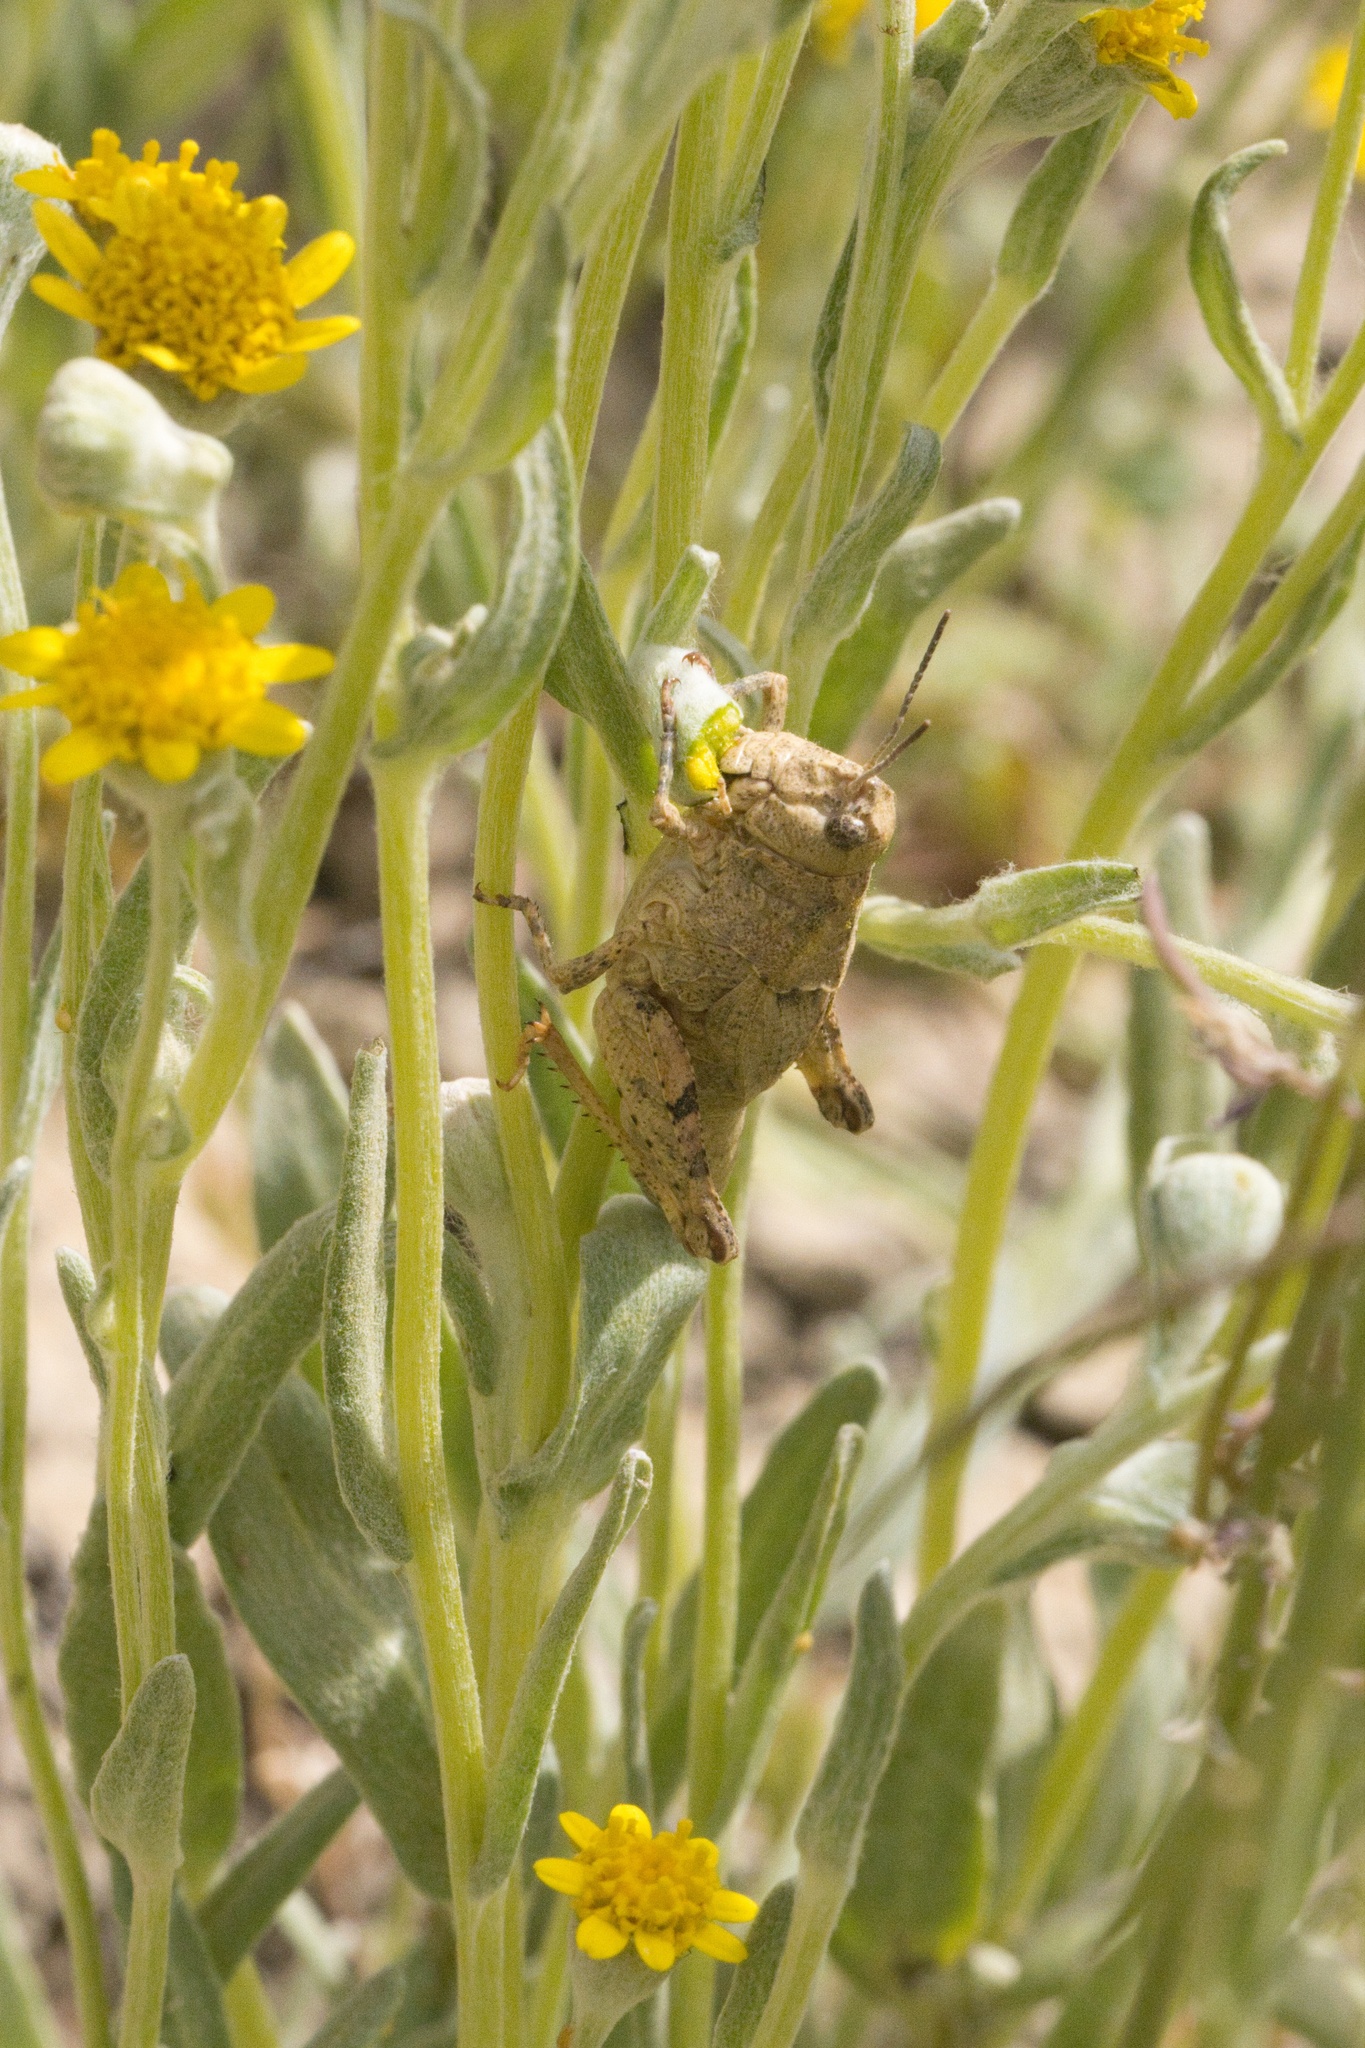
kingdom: Animalia
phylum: Arthropoda
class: Insecta
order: Orthoptera
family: Acrididae
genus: Esselenia
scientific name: Esselenia vanduzeei
